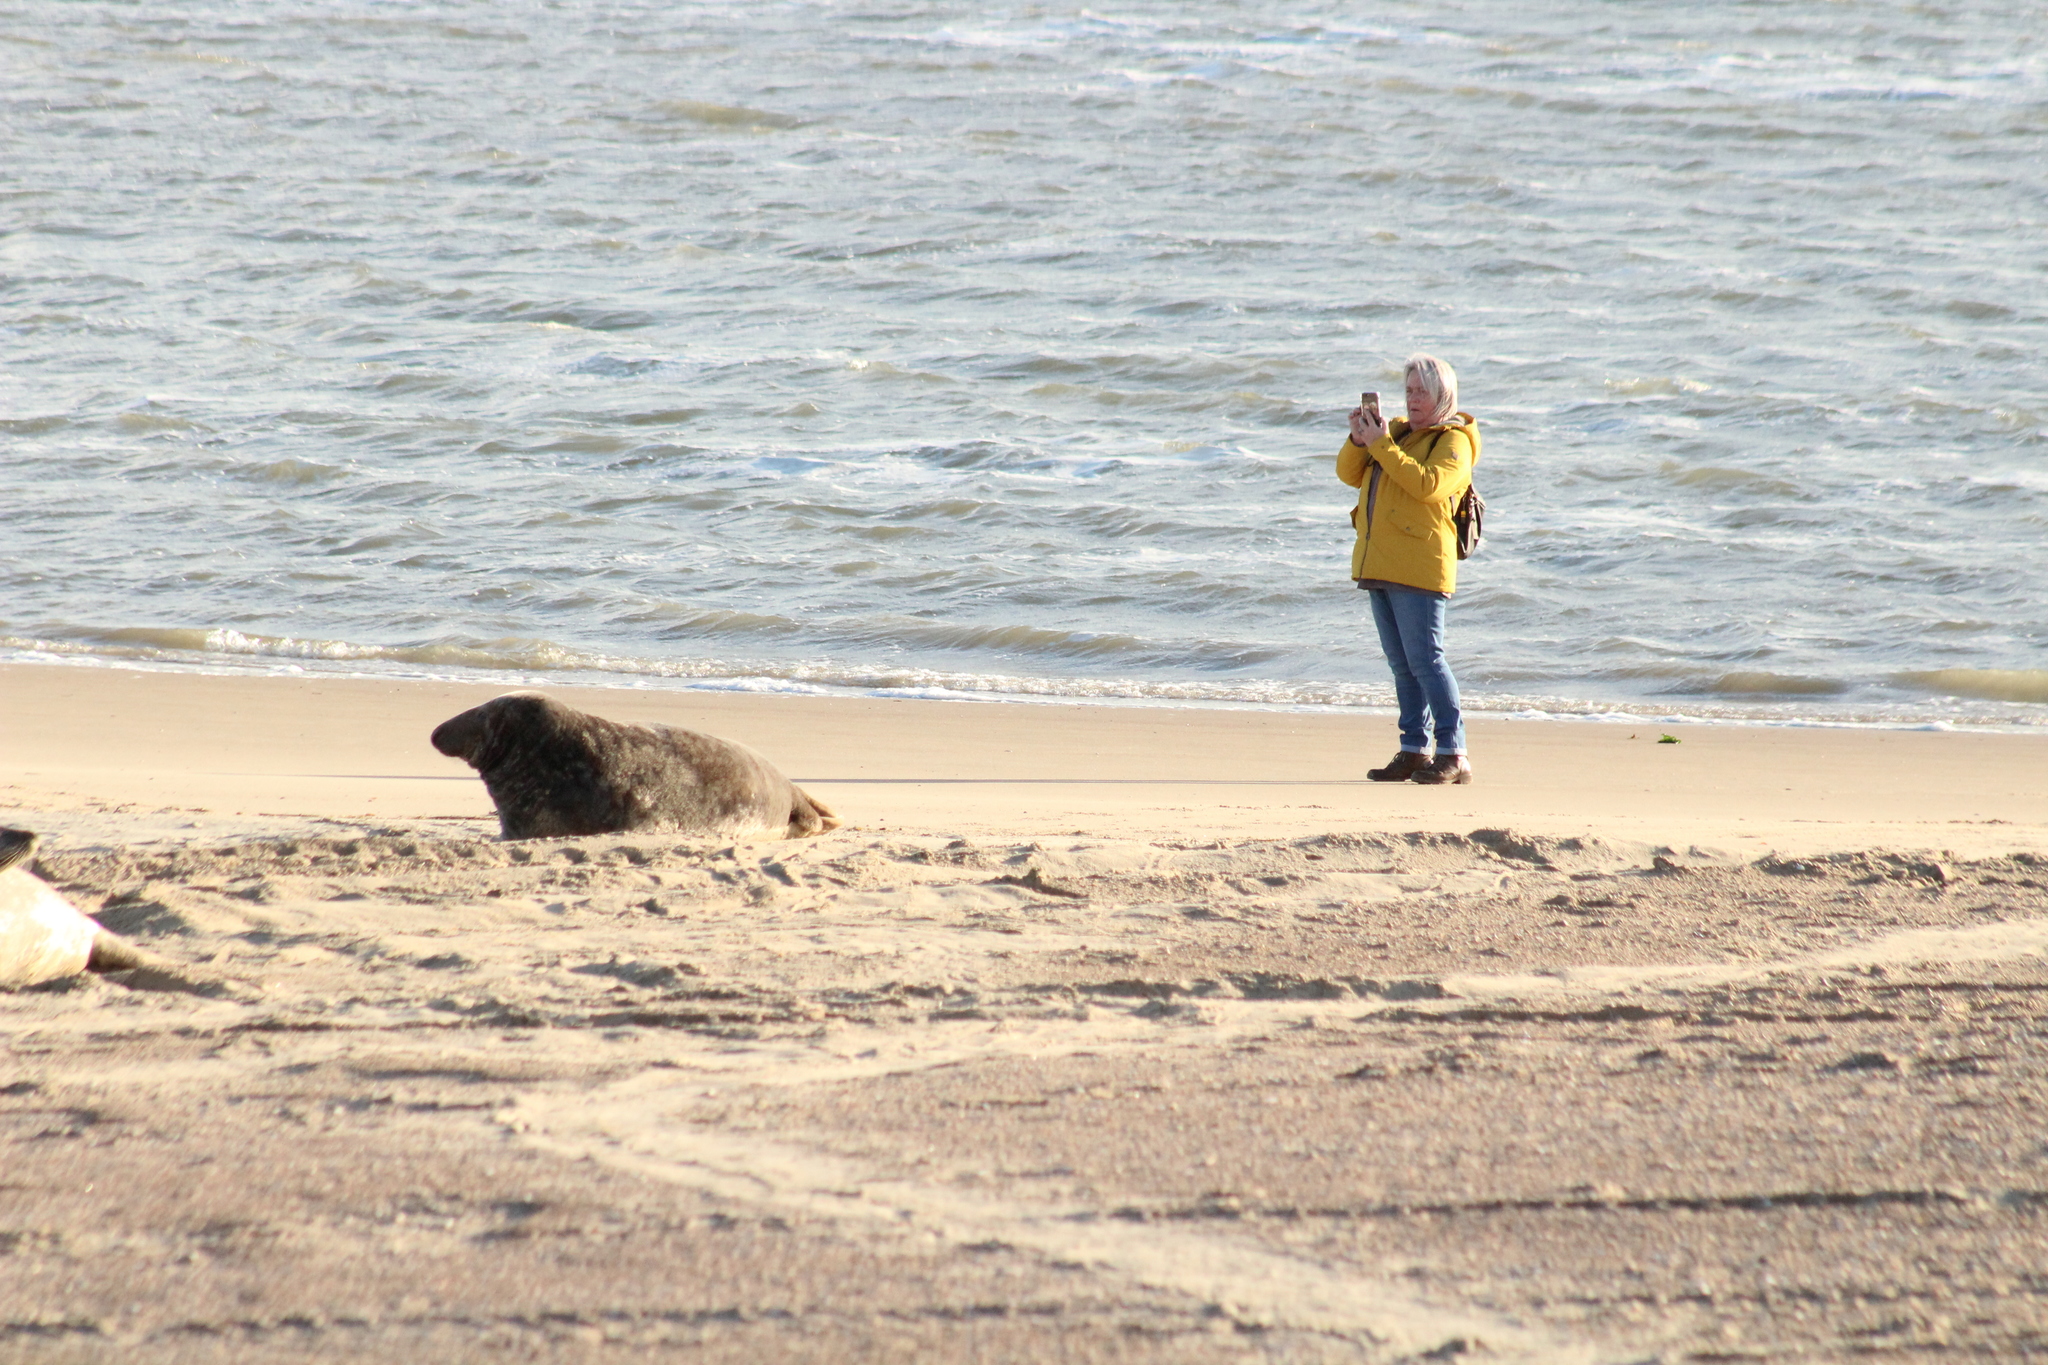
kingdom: Animalia
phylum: Chordata
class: Mammalia
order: Carnivora
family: Phocidae
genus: Halichoerus
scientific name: Halichoerus grypus
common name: Grey seal
